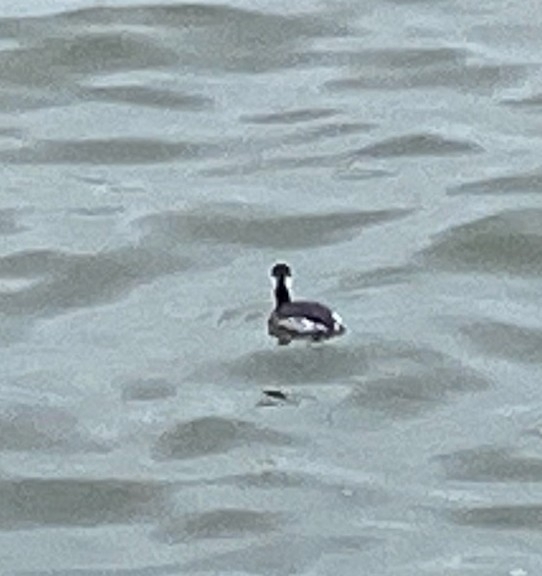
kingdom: Animalia
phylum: Chordata
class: Aves
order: Podicipediformes
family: Podicipedidae
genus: Podiceps
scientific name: Podiceps auritus
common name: Horned grebe
